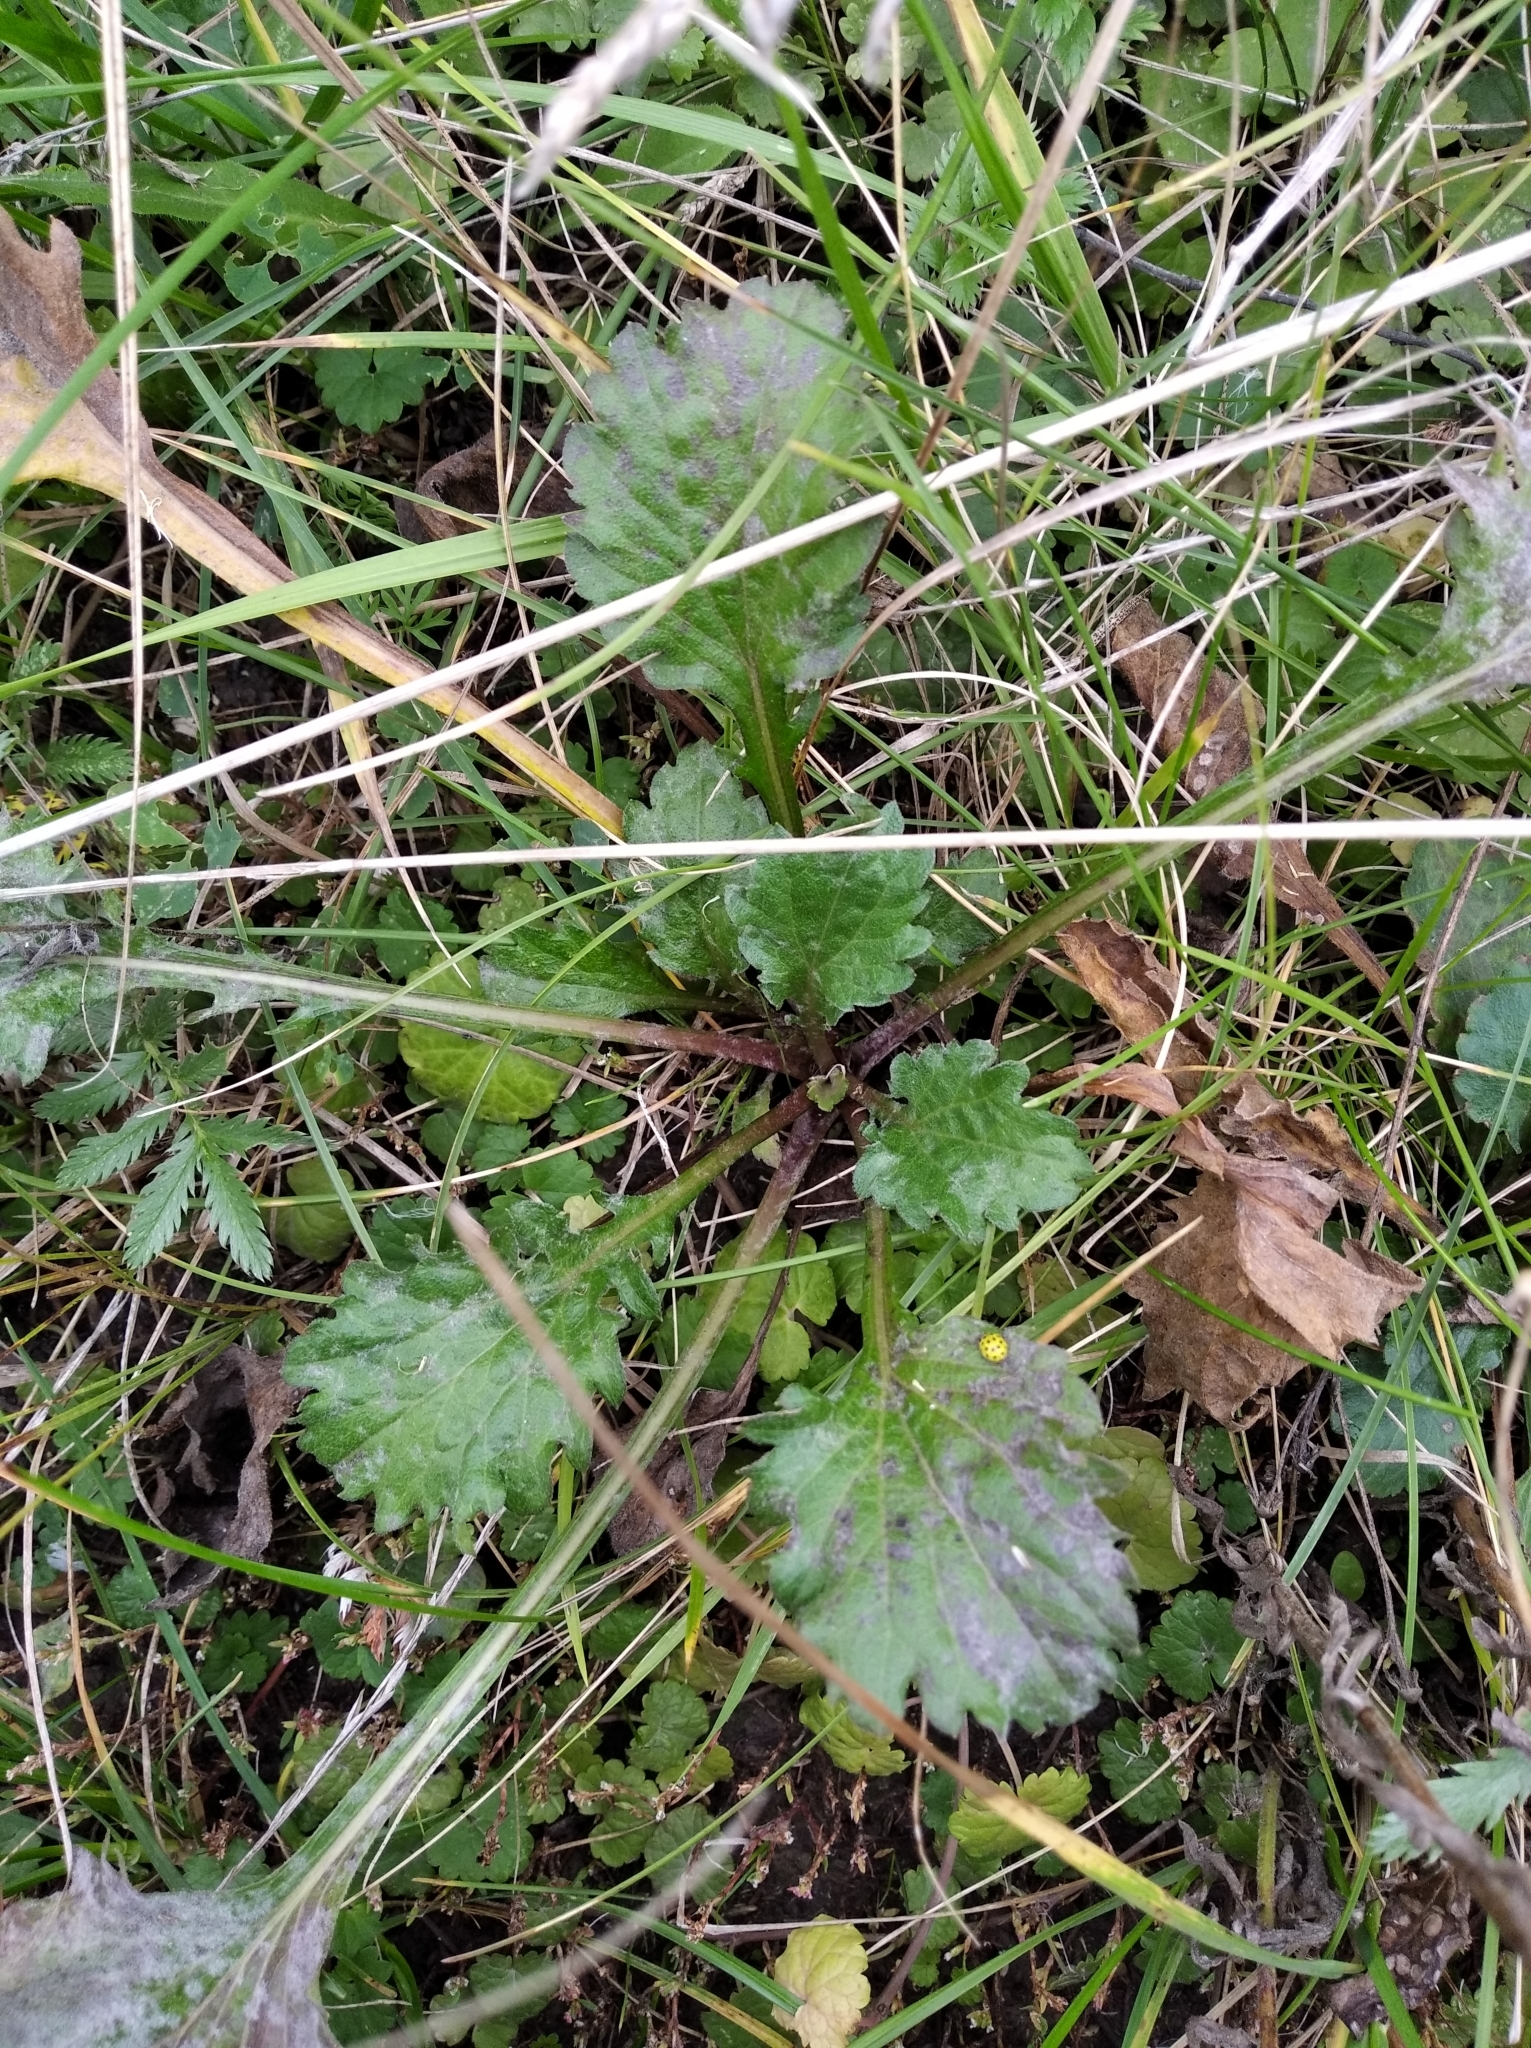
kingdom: Plantae
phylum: Tracheophyta
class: Magnoliopsida
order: Asterales
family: Asteraceae
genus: Erigeron
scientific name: Erigeron annuus
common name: Tall fleabane
